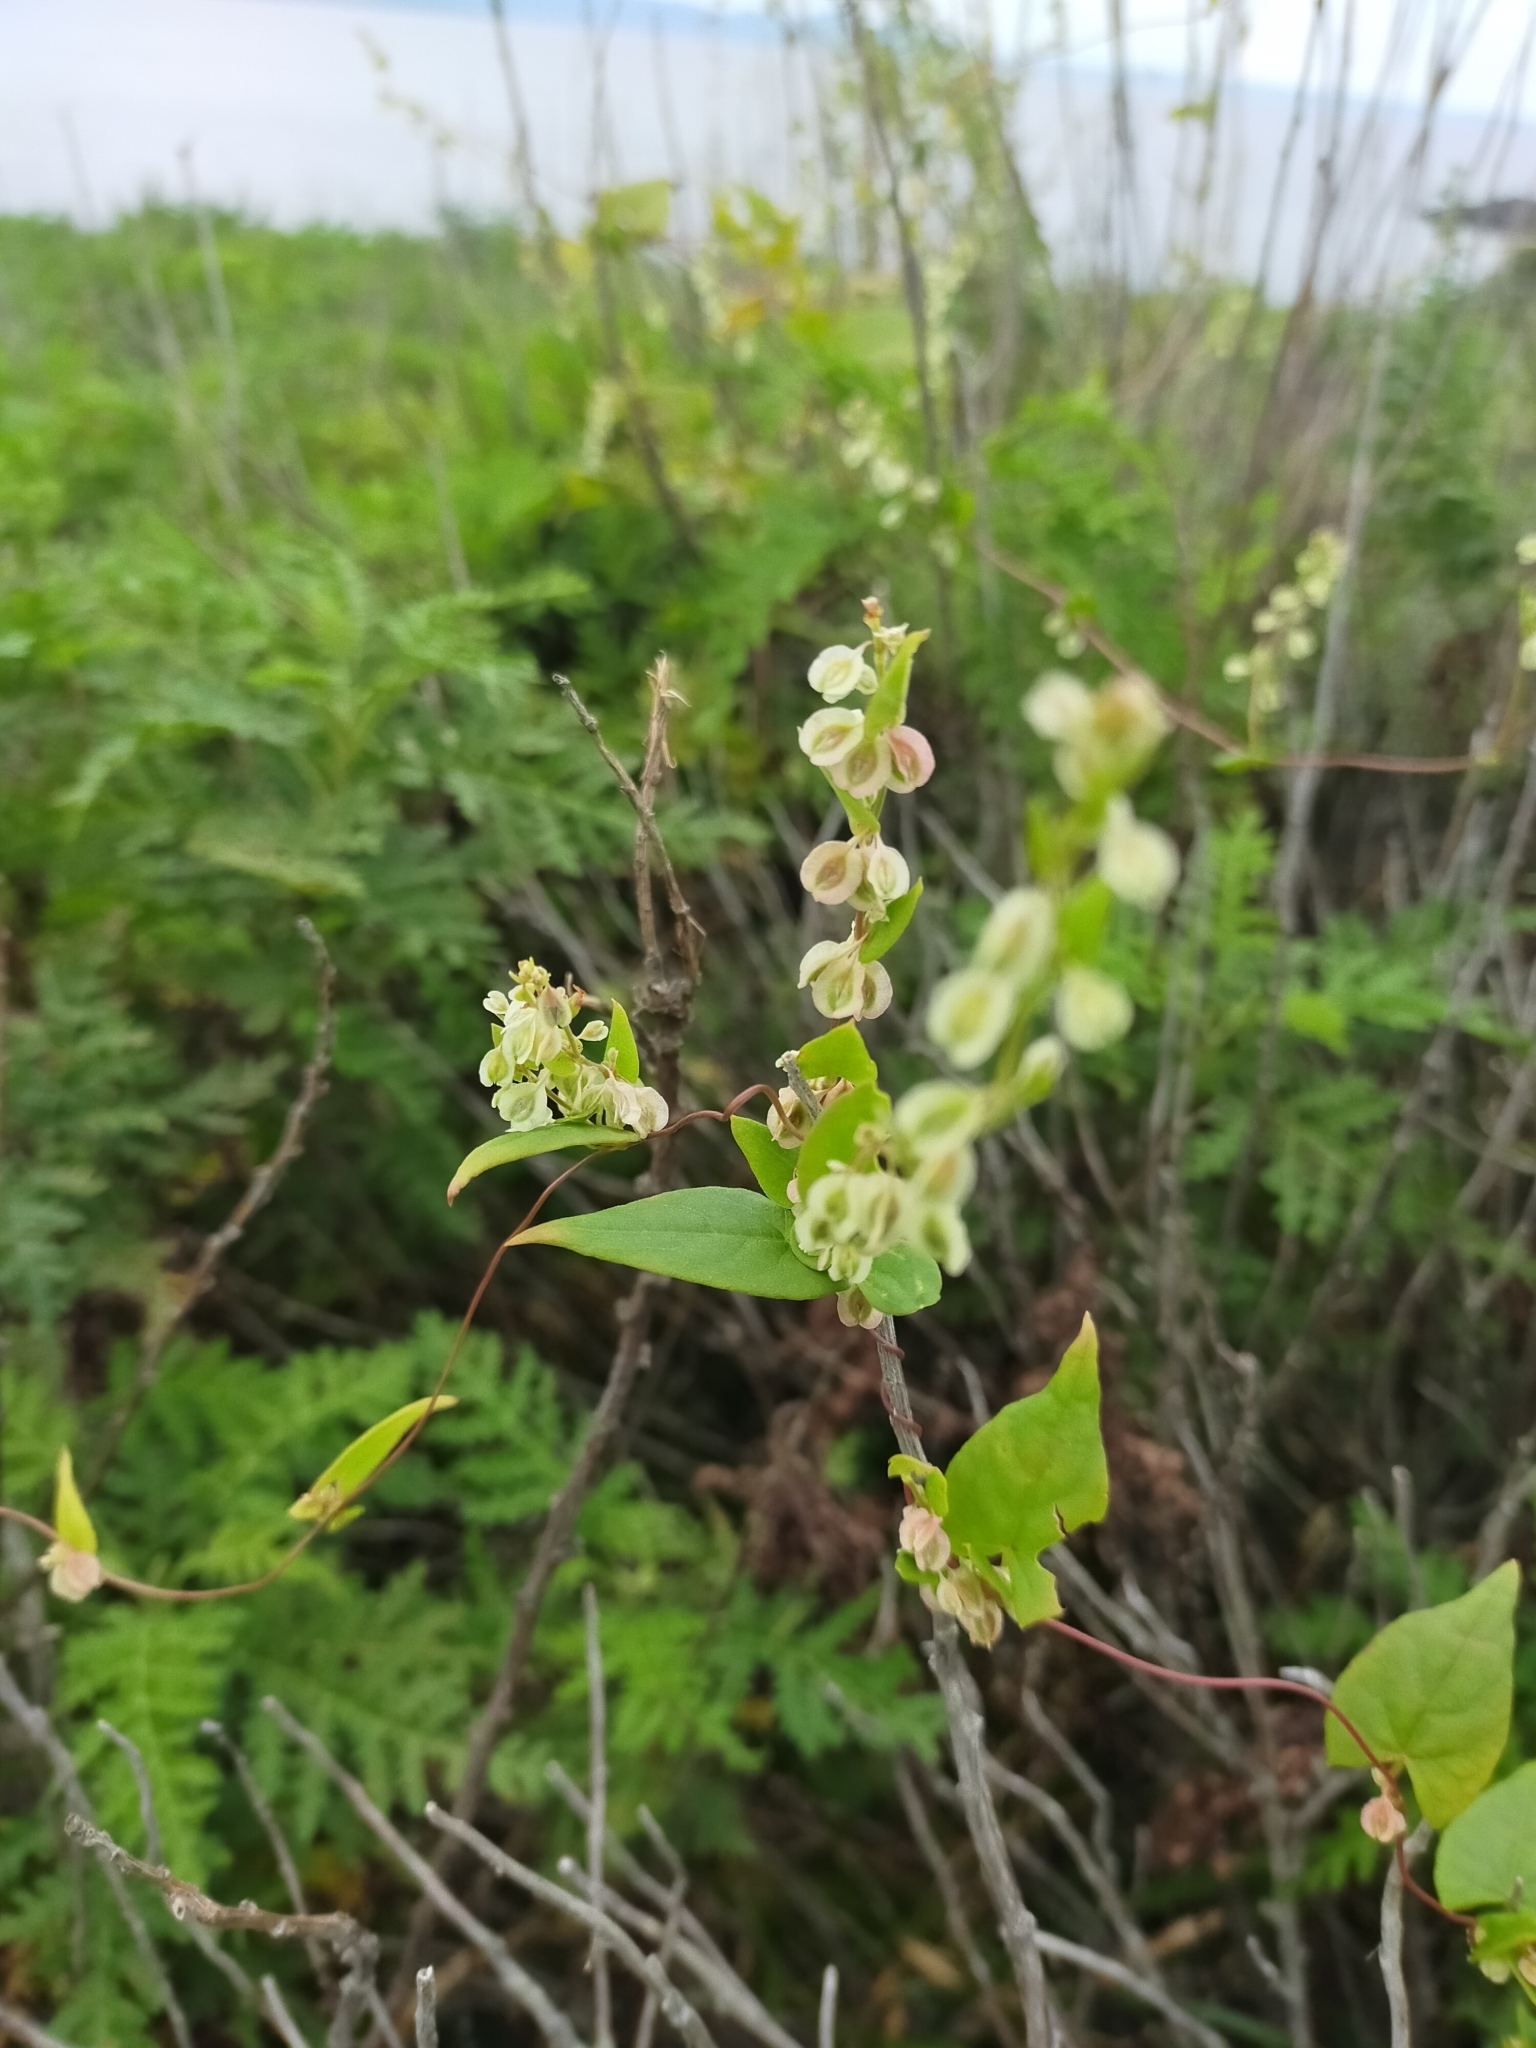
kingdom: Plantae
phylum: Tracheophyta
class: Magnoliopsida
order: Caryophyllales
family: Polygonaceae
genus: Fallopia
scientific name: Fallopia dumetorum
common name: Copse-bindweed
